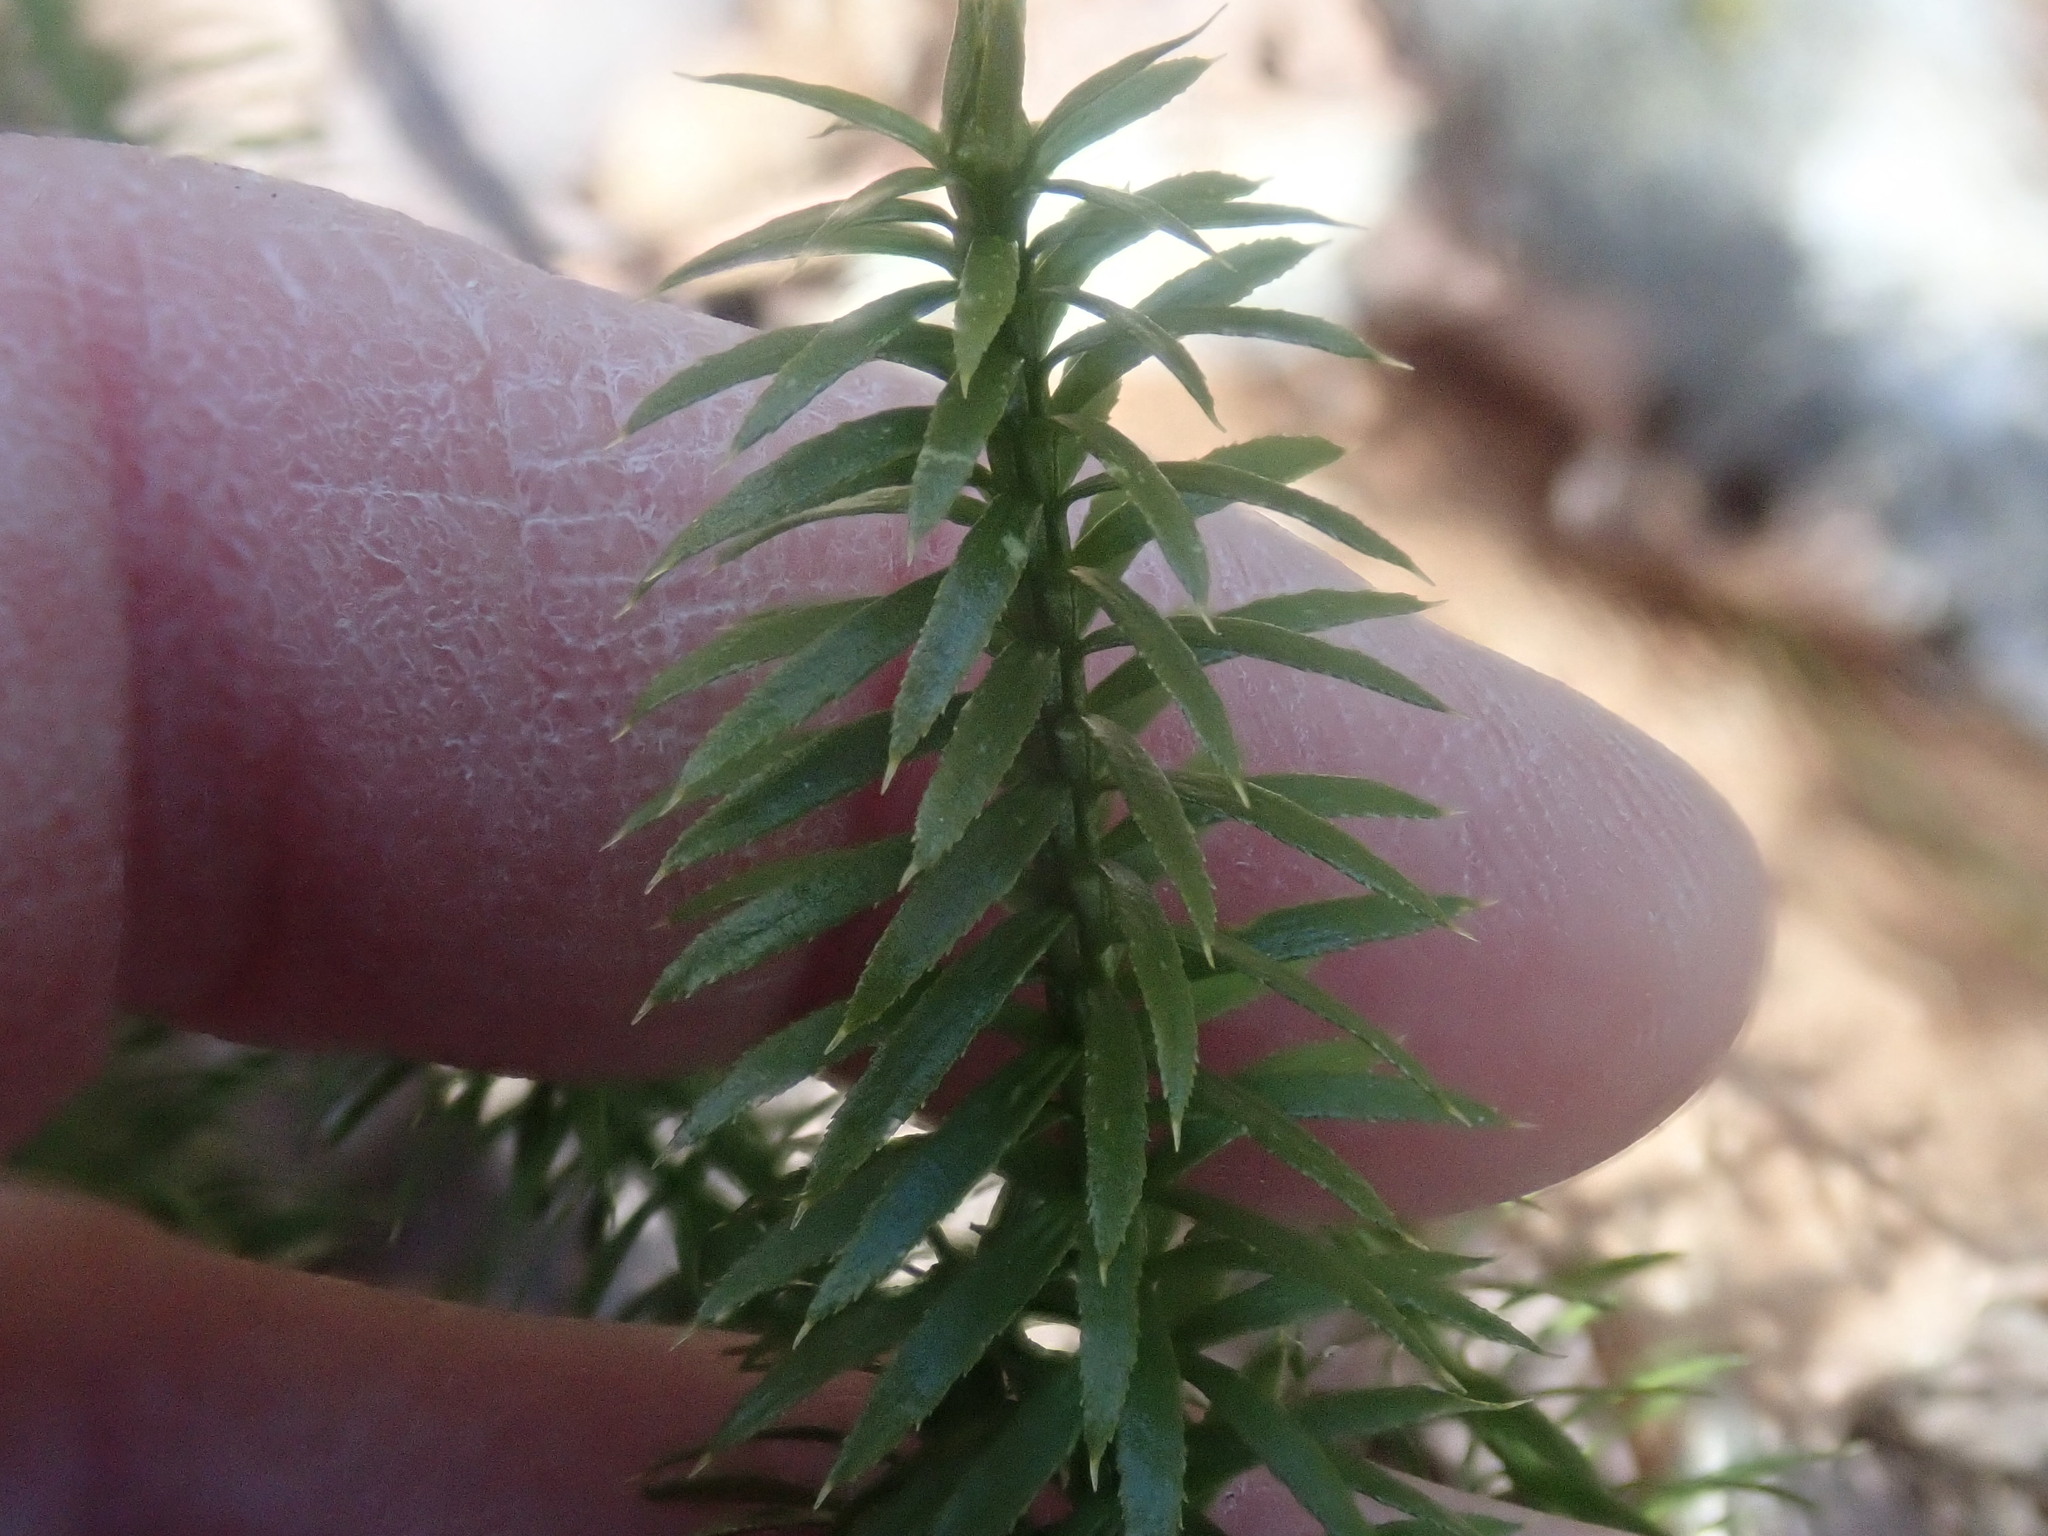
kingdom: Plantae
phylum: Tracheophyta
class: Lycopodiopsida
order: Lycopodiales
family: Lycopodiaceae
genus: Spinulum
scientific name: Spinulum annotinum
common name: Interrupted club-moss
